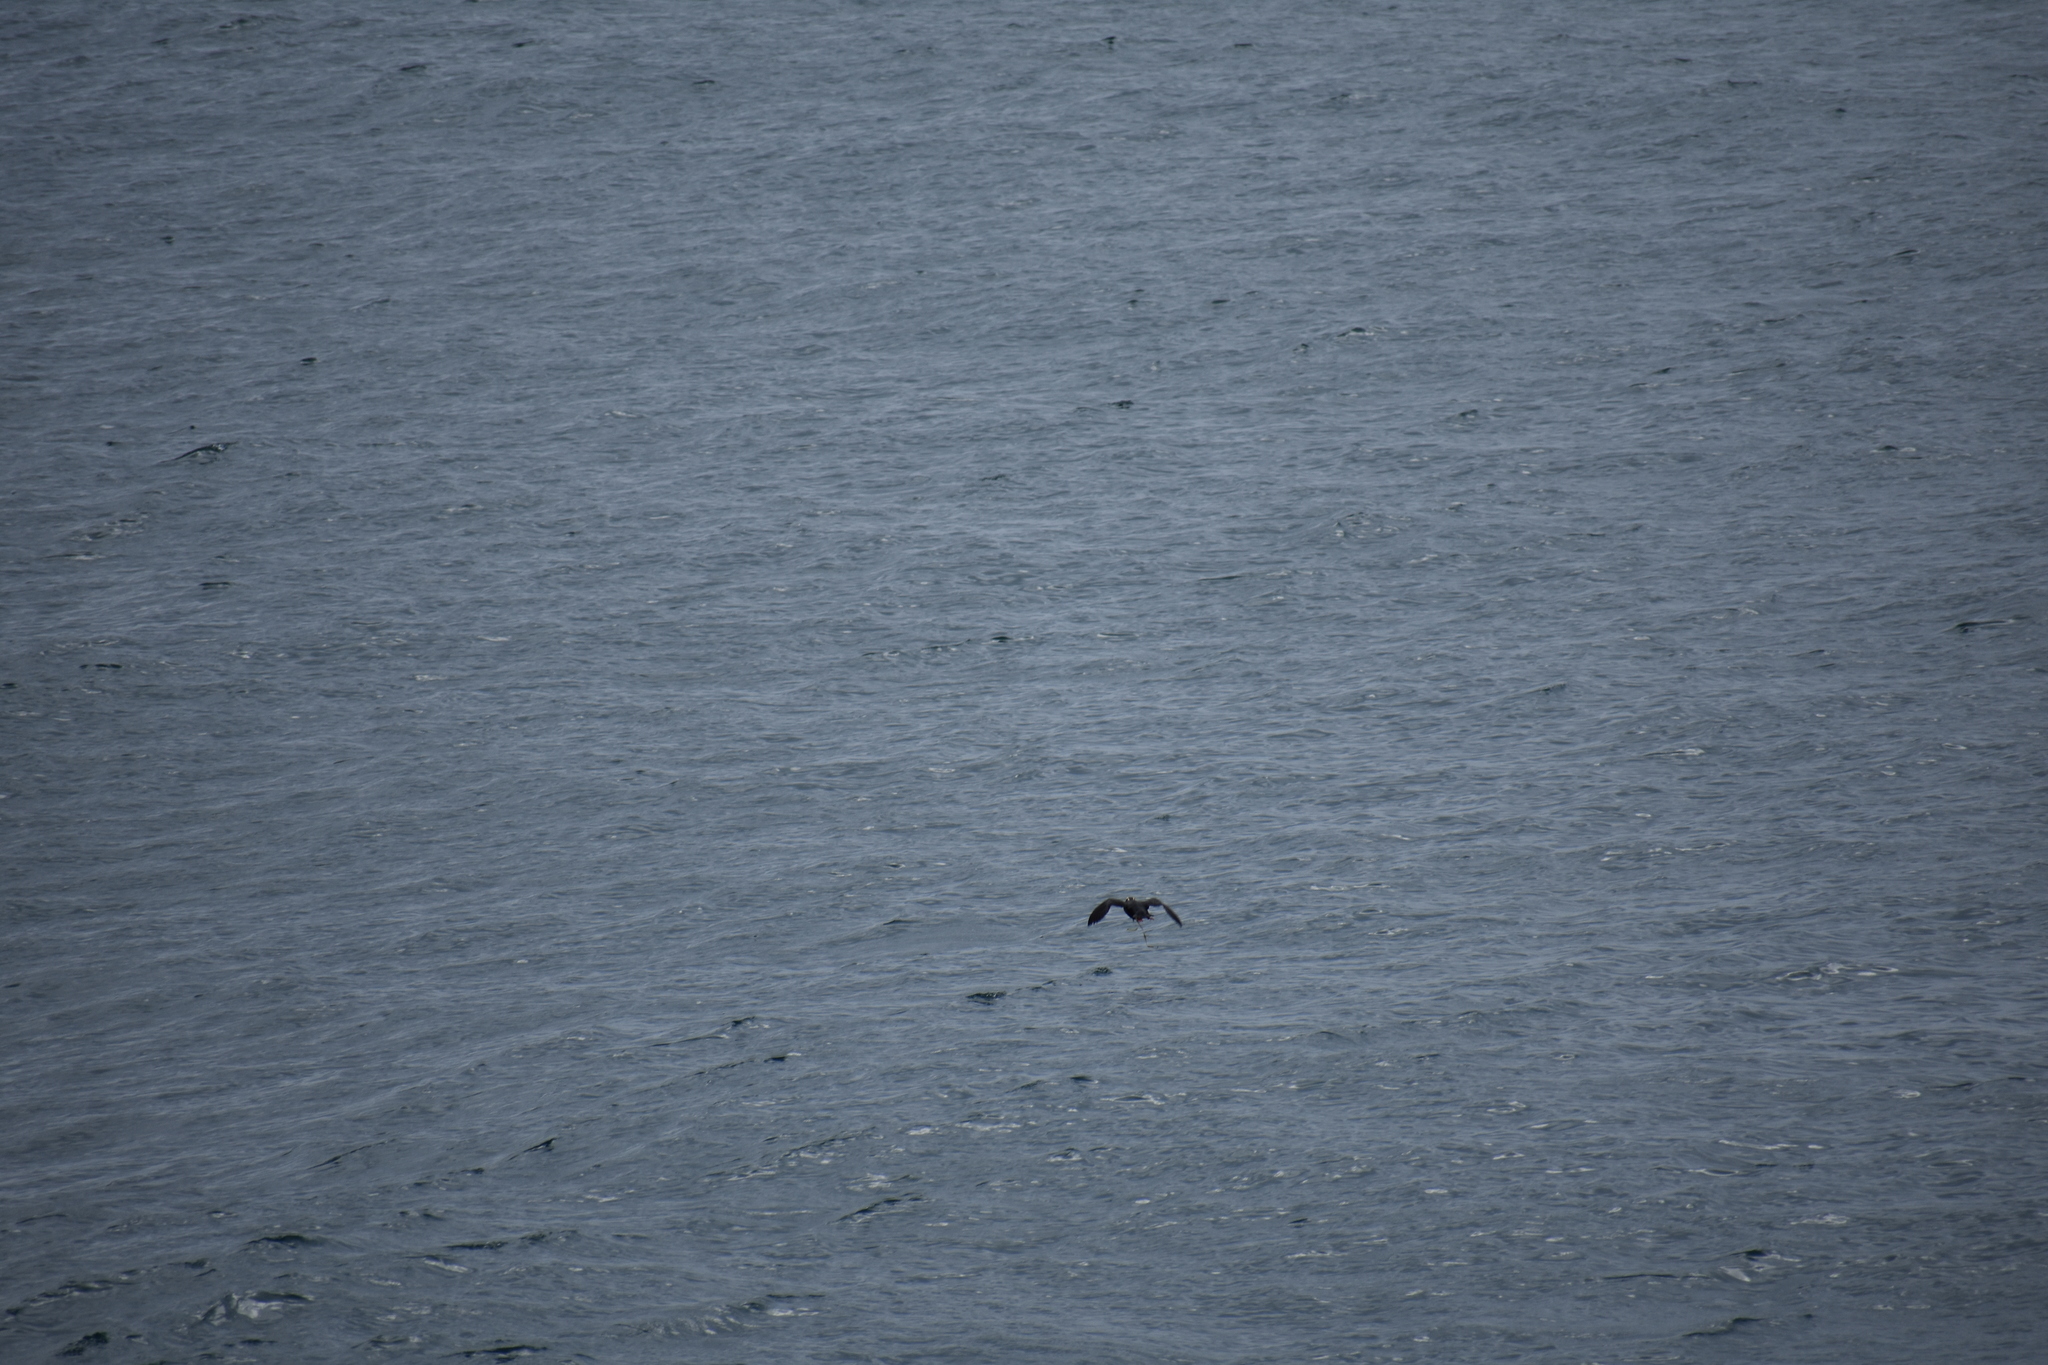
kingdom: Animalia
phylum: Chordata
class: Aves
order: Charadriiformes
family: Alcidae
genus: Fratercula
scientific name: Fratercula cirrhata
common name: Tufted puffin
